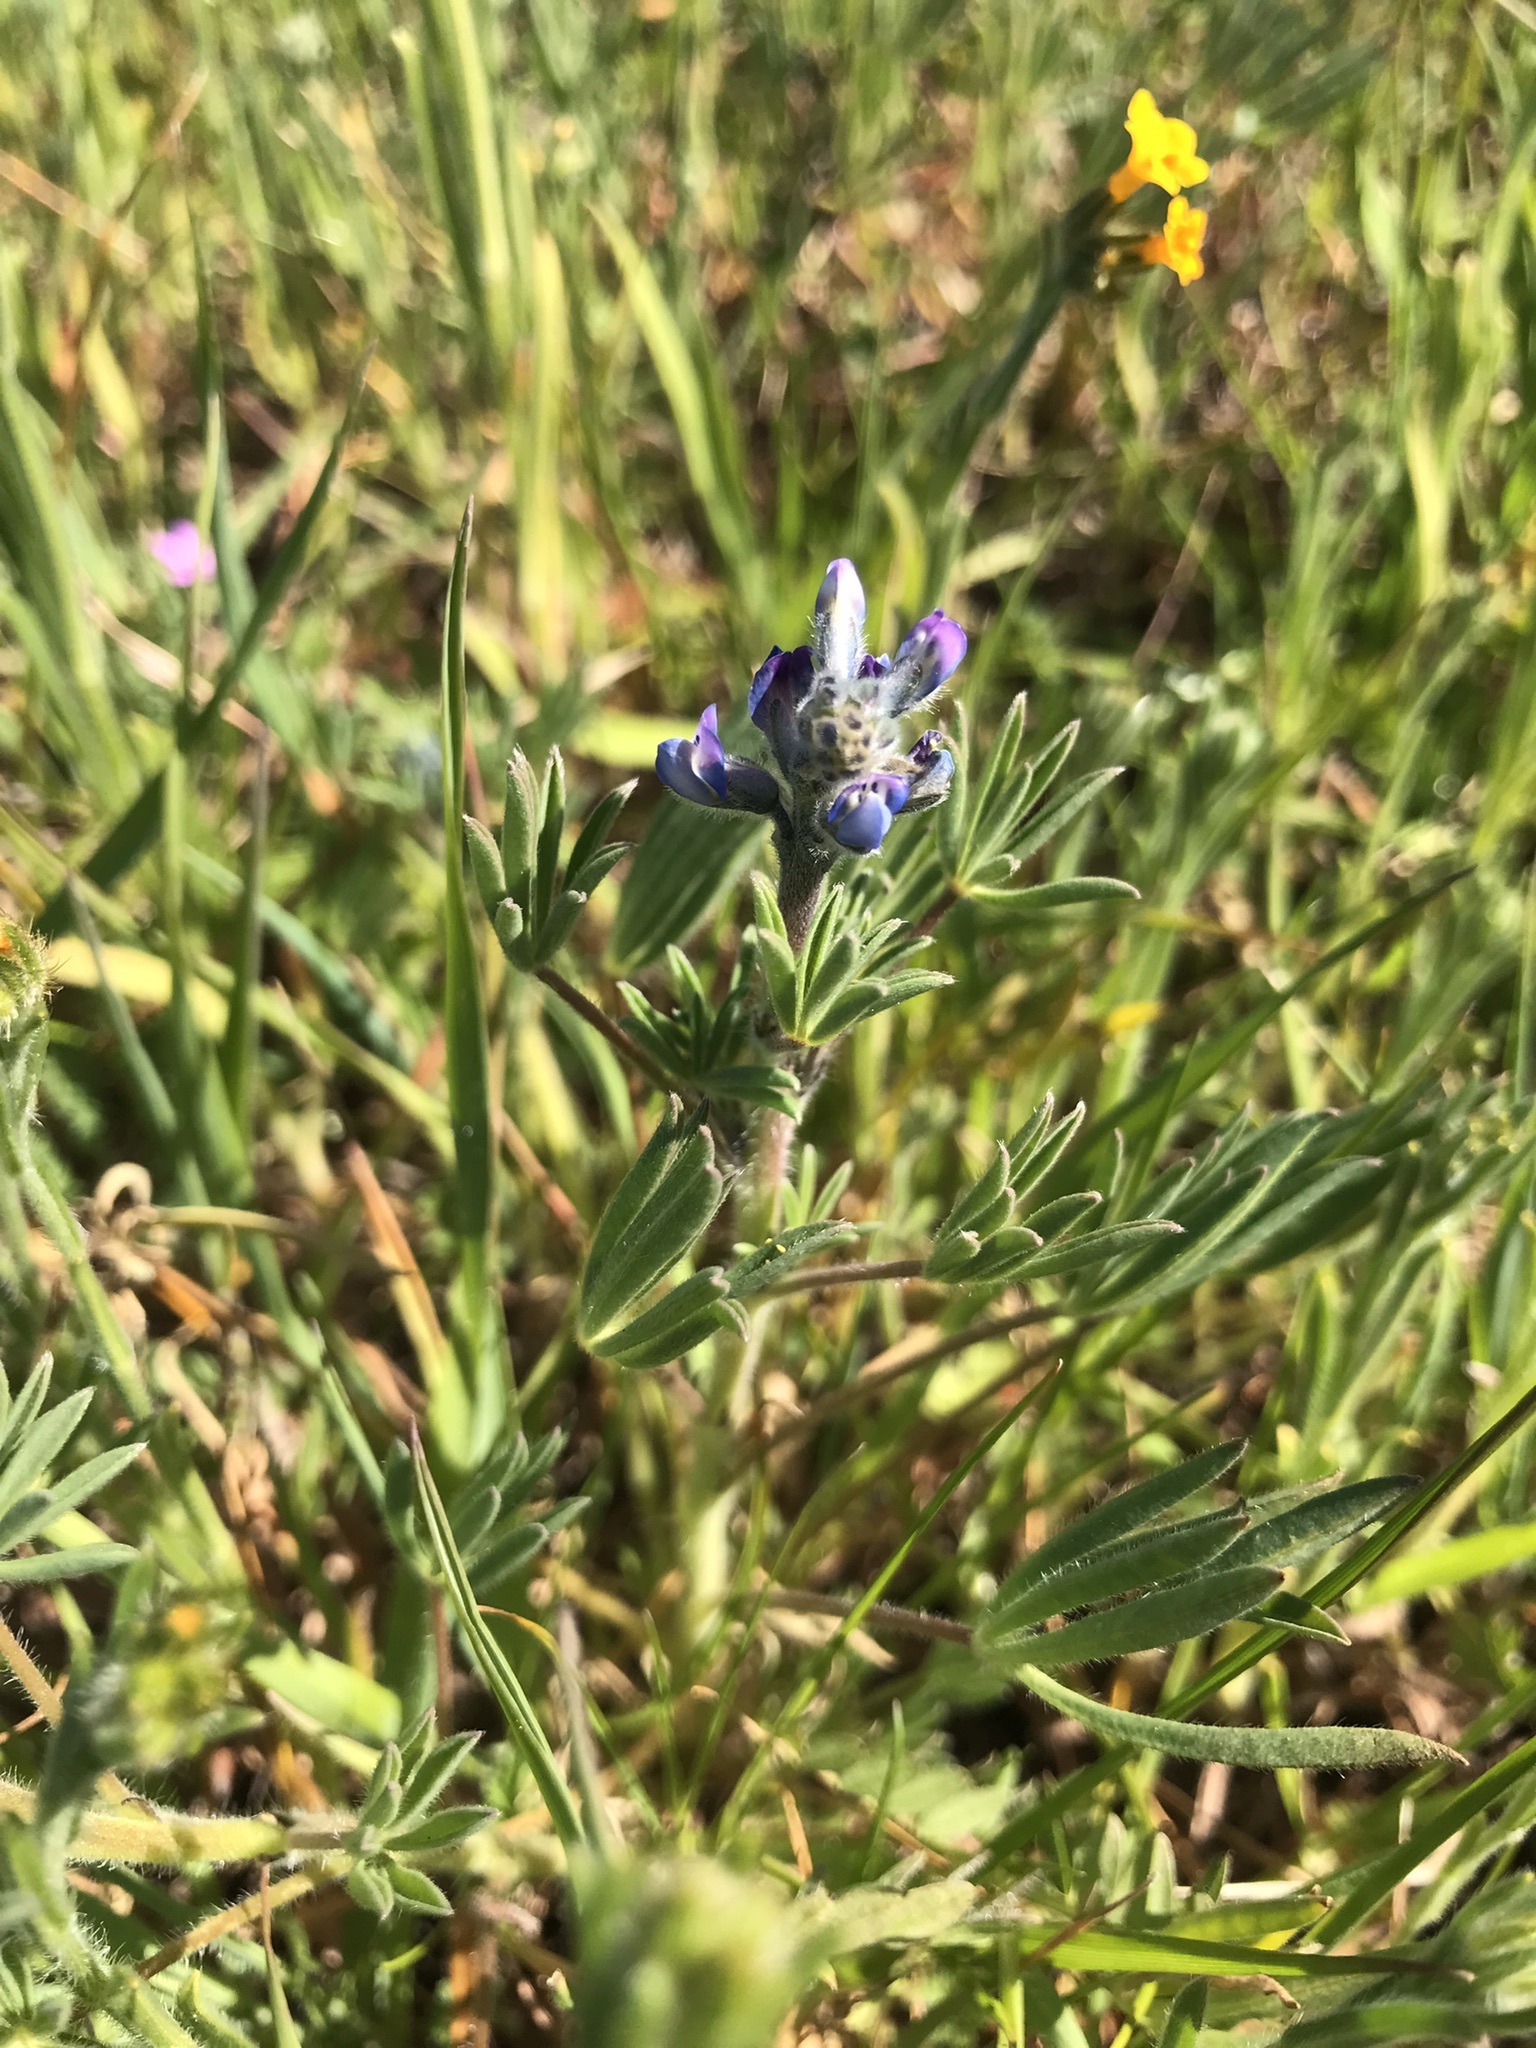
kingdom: Plantae
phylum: Tracheophyta
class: Magnoliopsida
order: Fabales
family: Fabaceae
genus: Lupinus
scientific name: Lupinus bicolor
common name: Miniature lupine
